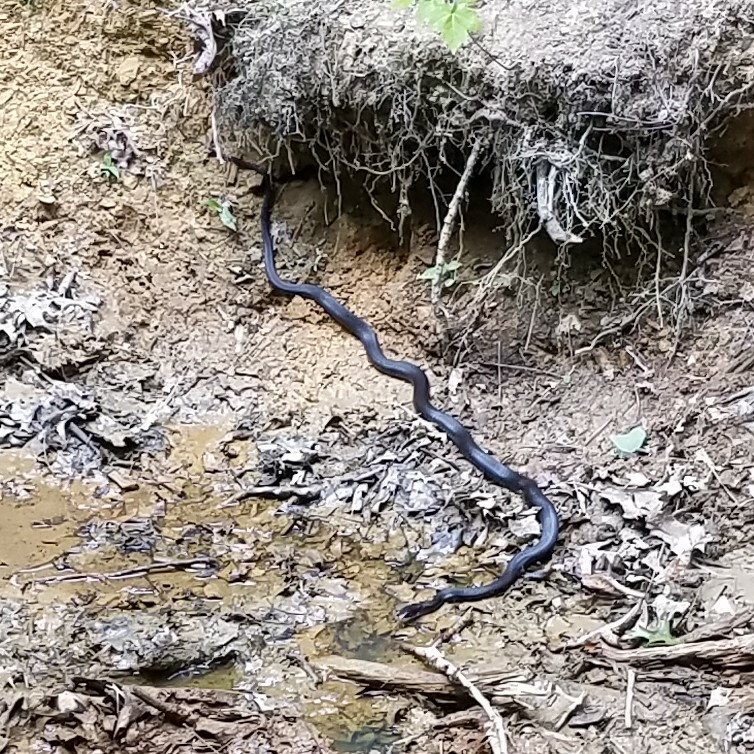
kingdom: Animalia
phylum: Chordata
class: Squamata
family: Colubridae
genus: Coluber
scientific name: Coluber constrictor
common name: Eastern racer
